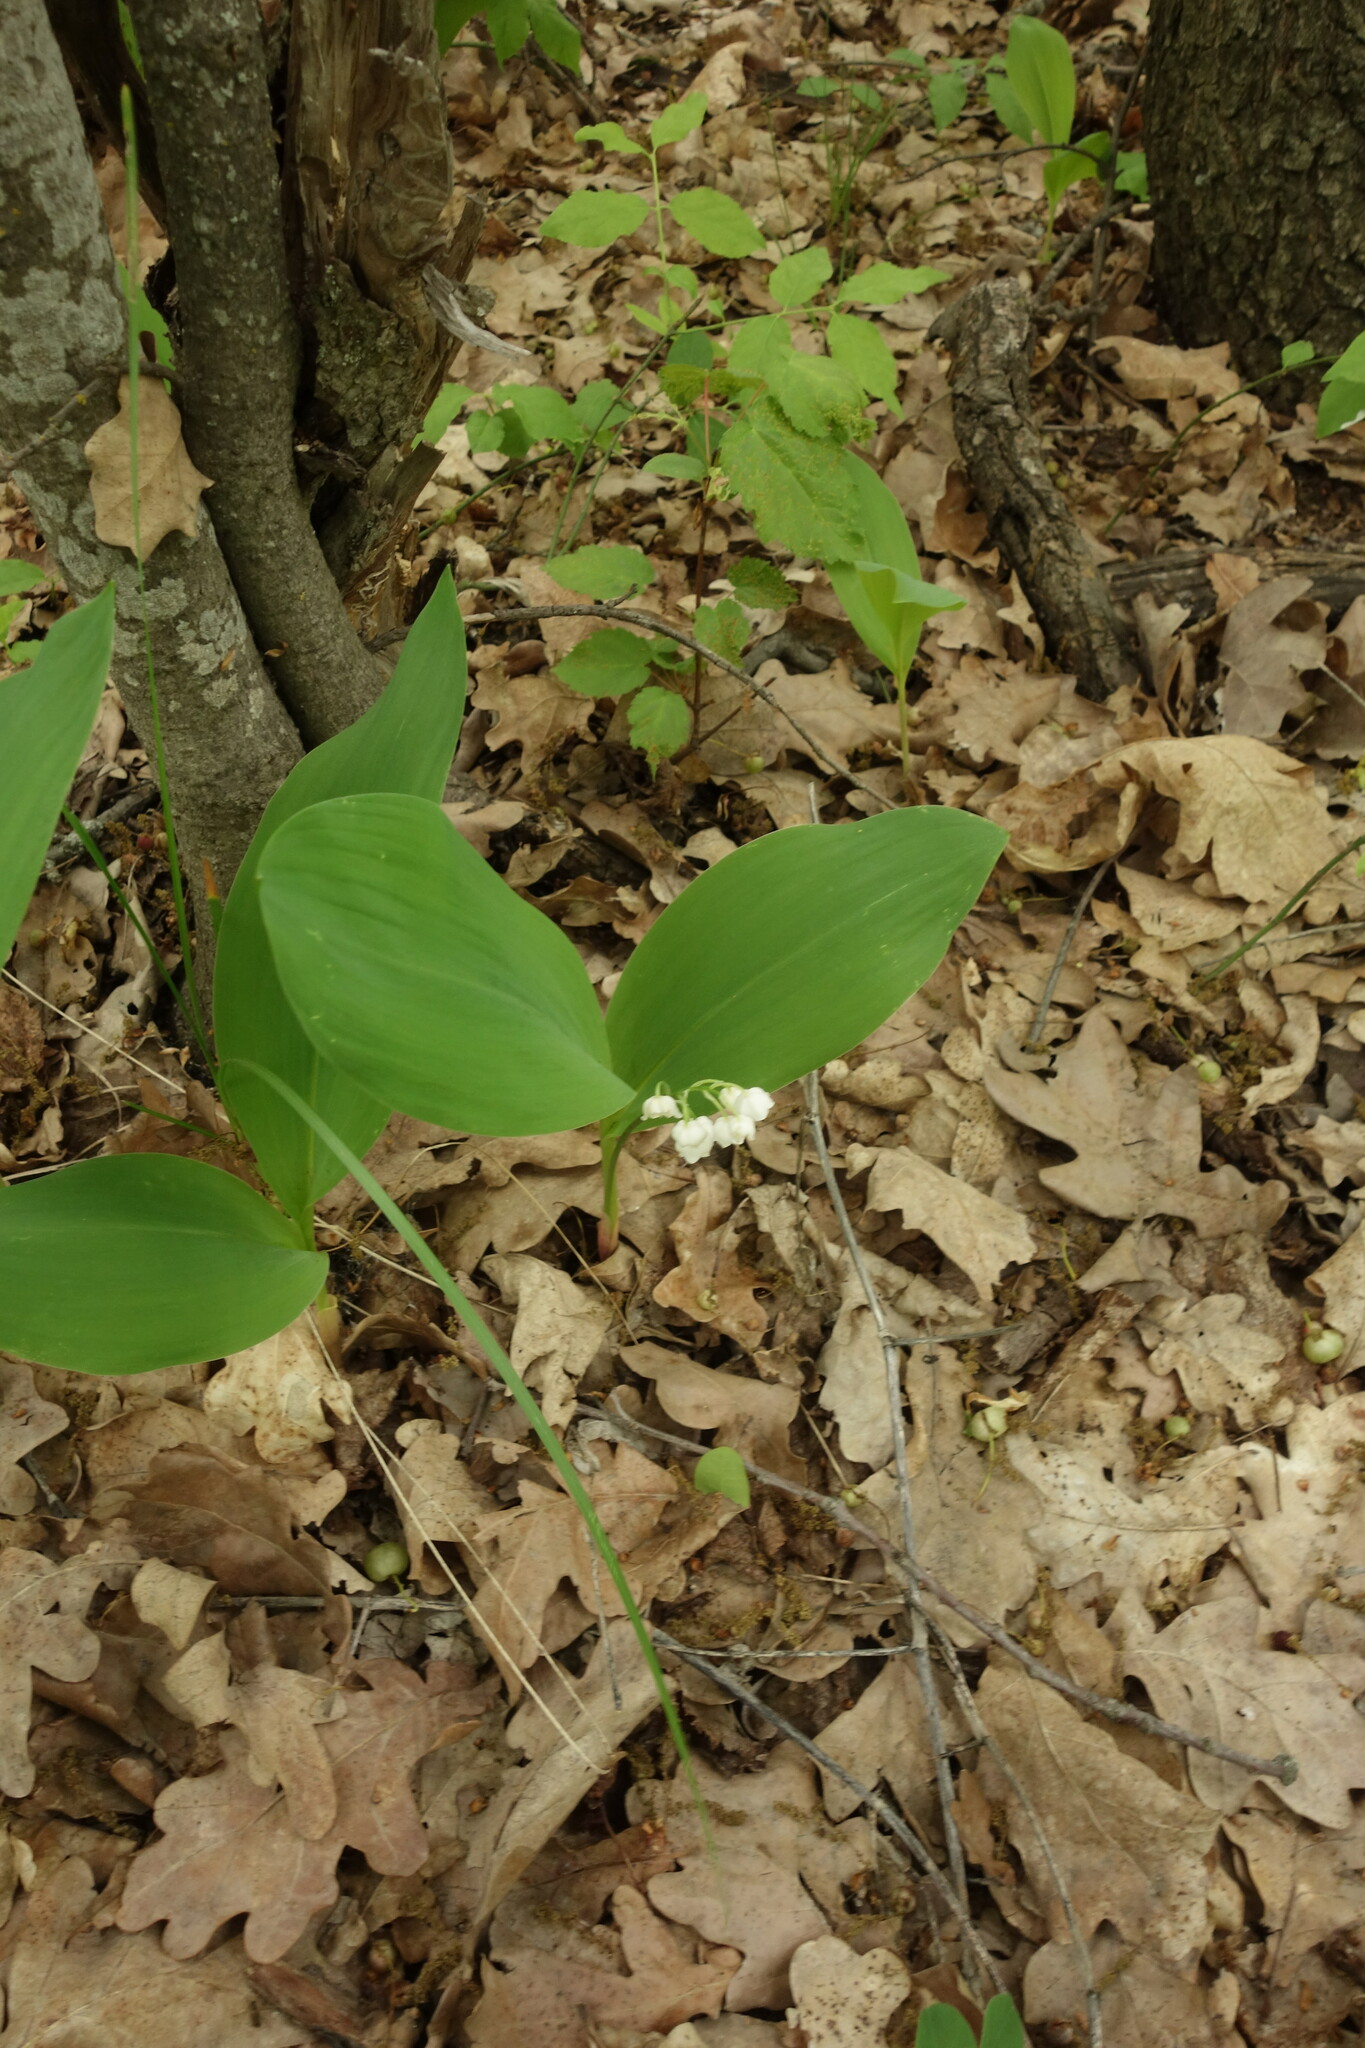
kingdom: Plantae
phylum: Tracheophyta
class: Liliopsida
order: Asparagales
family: Asparagaceae
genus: Convallaria
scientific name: Convallaria majalis
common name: Lily-of-the-valley
